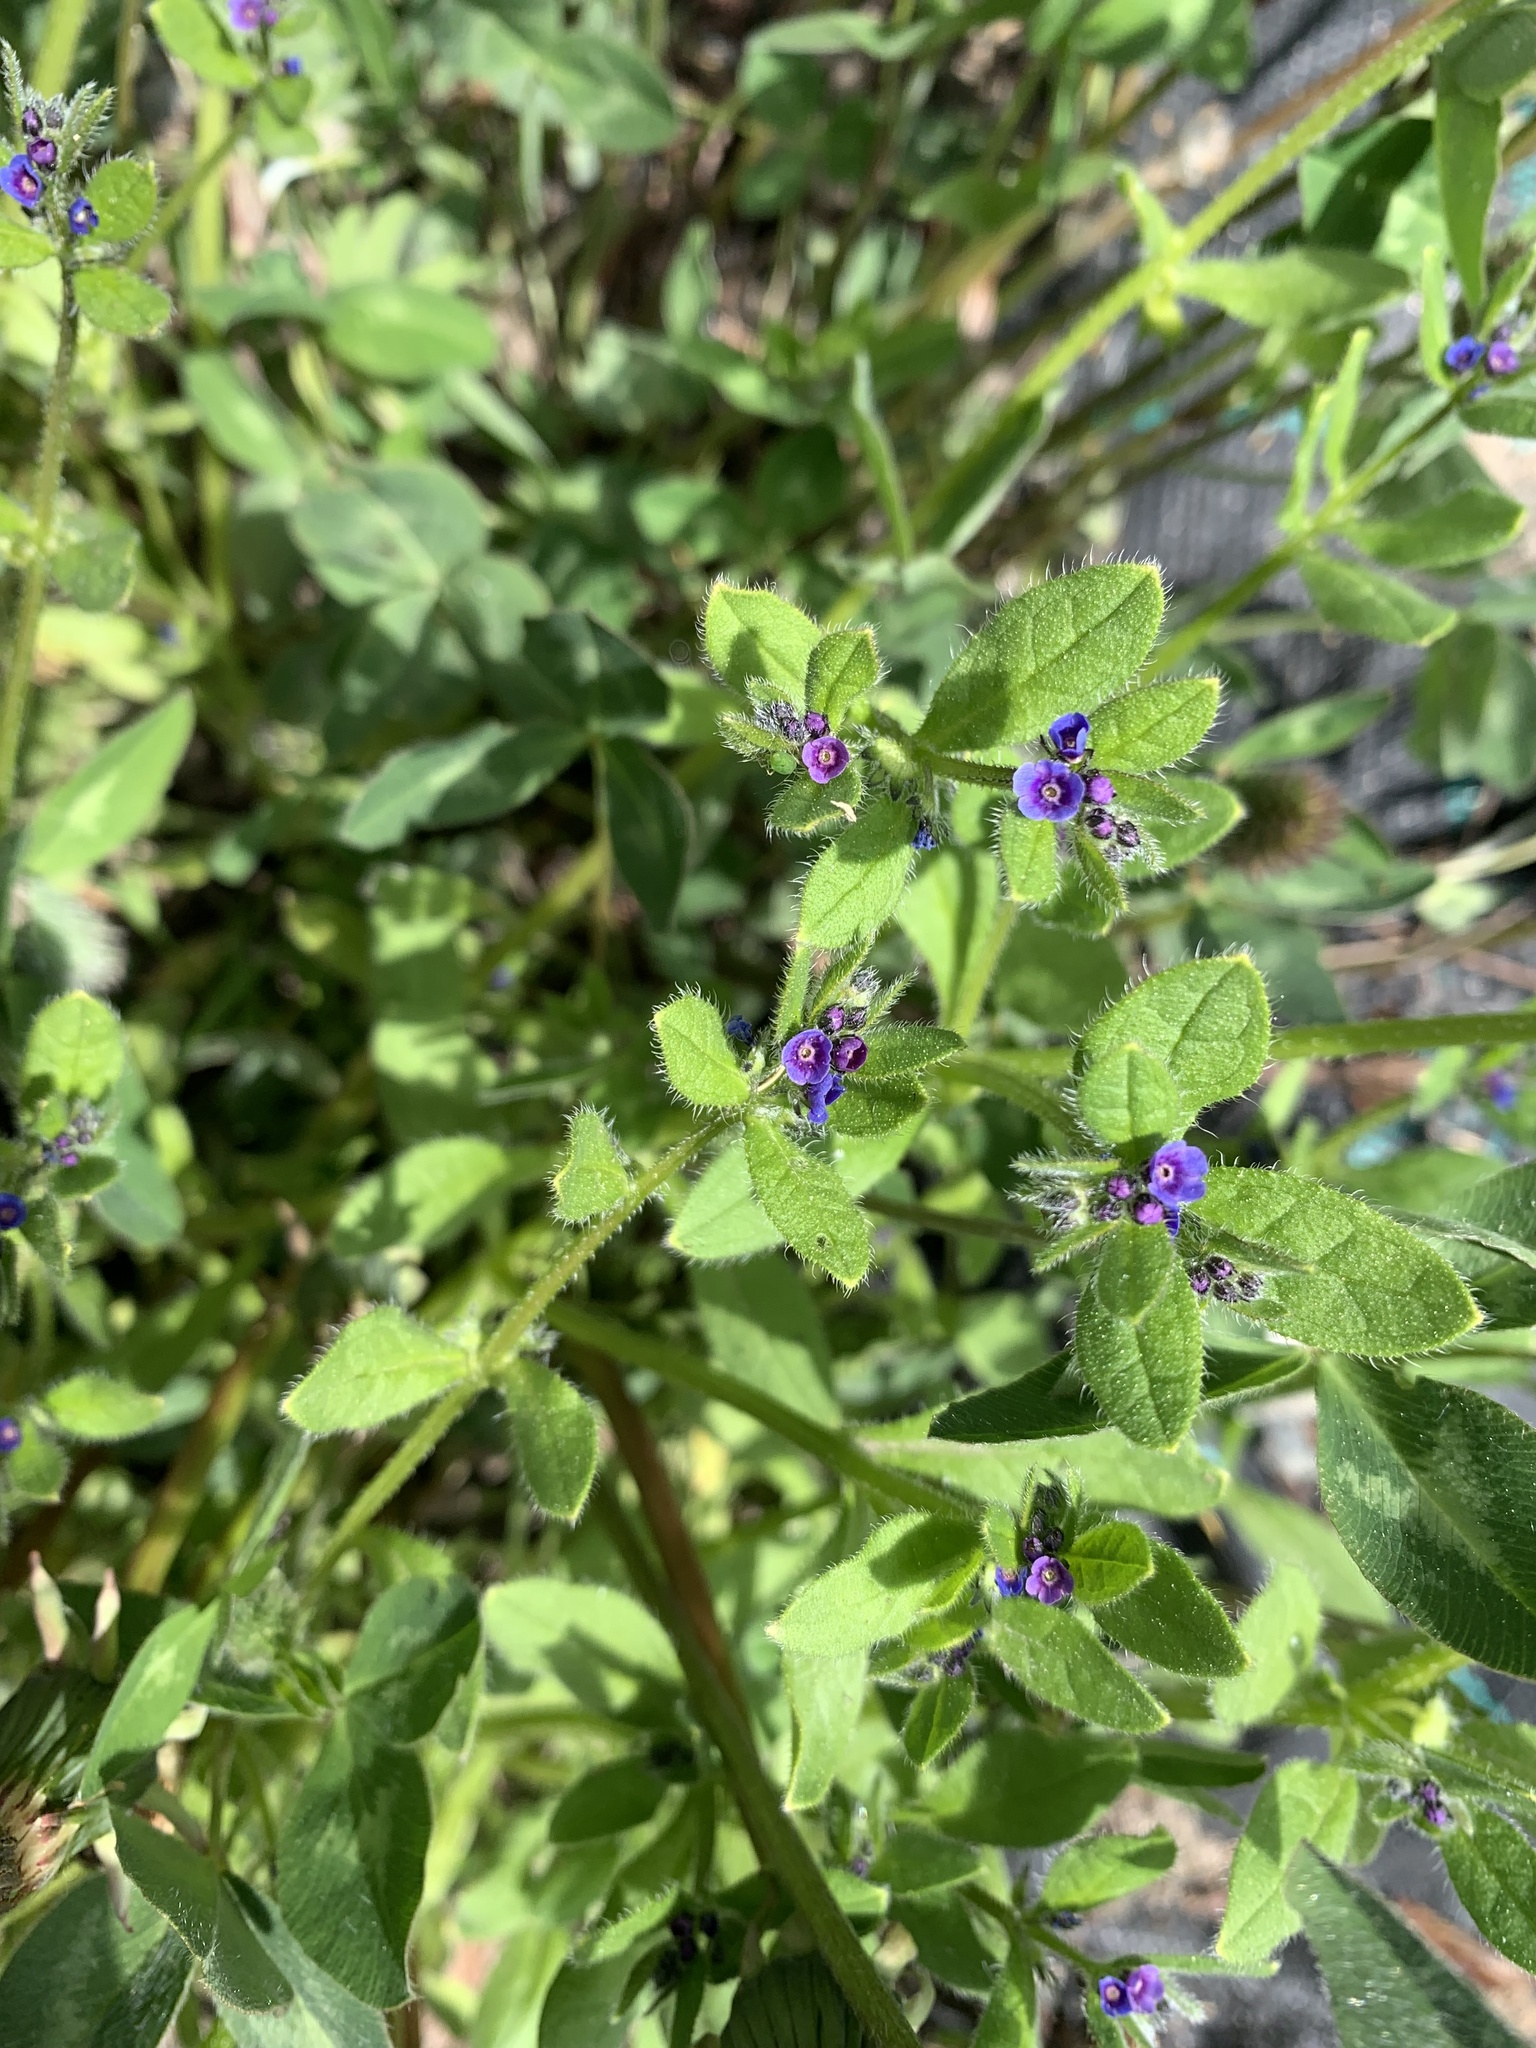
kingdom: Plantae
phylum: Tracheophyta
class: Magnoliopsida
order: Boraginales
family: Boraginaceae
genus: Asperugo
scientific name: Asperugo procumbens
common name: Madwort
